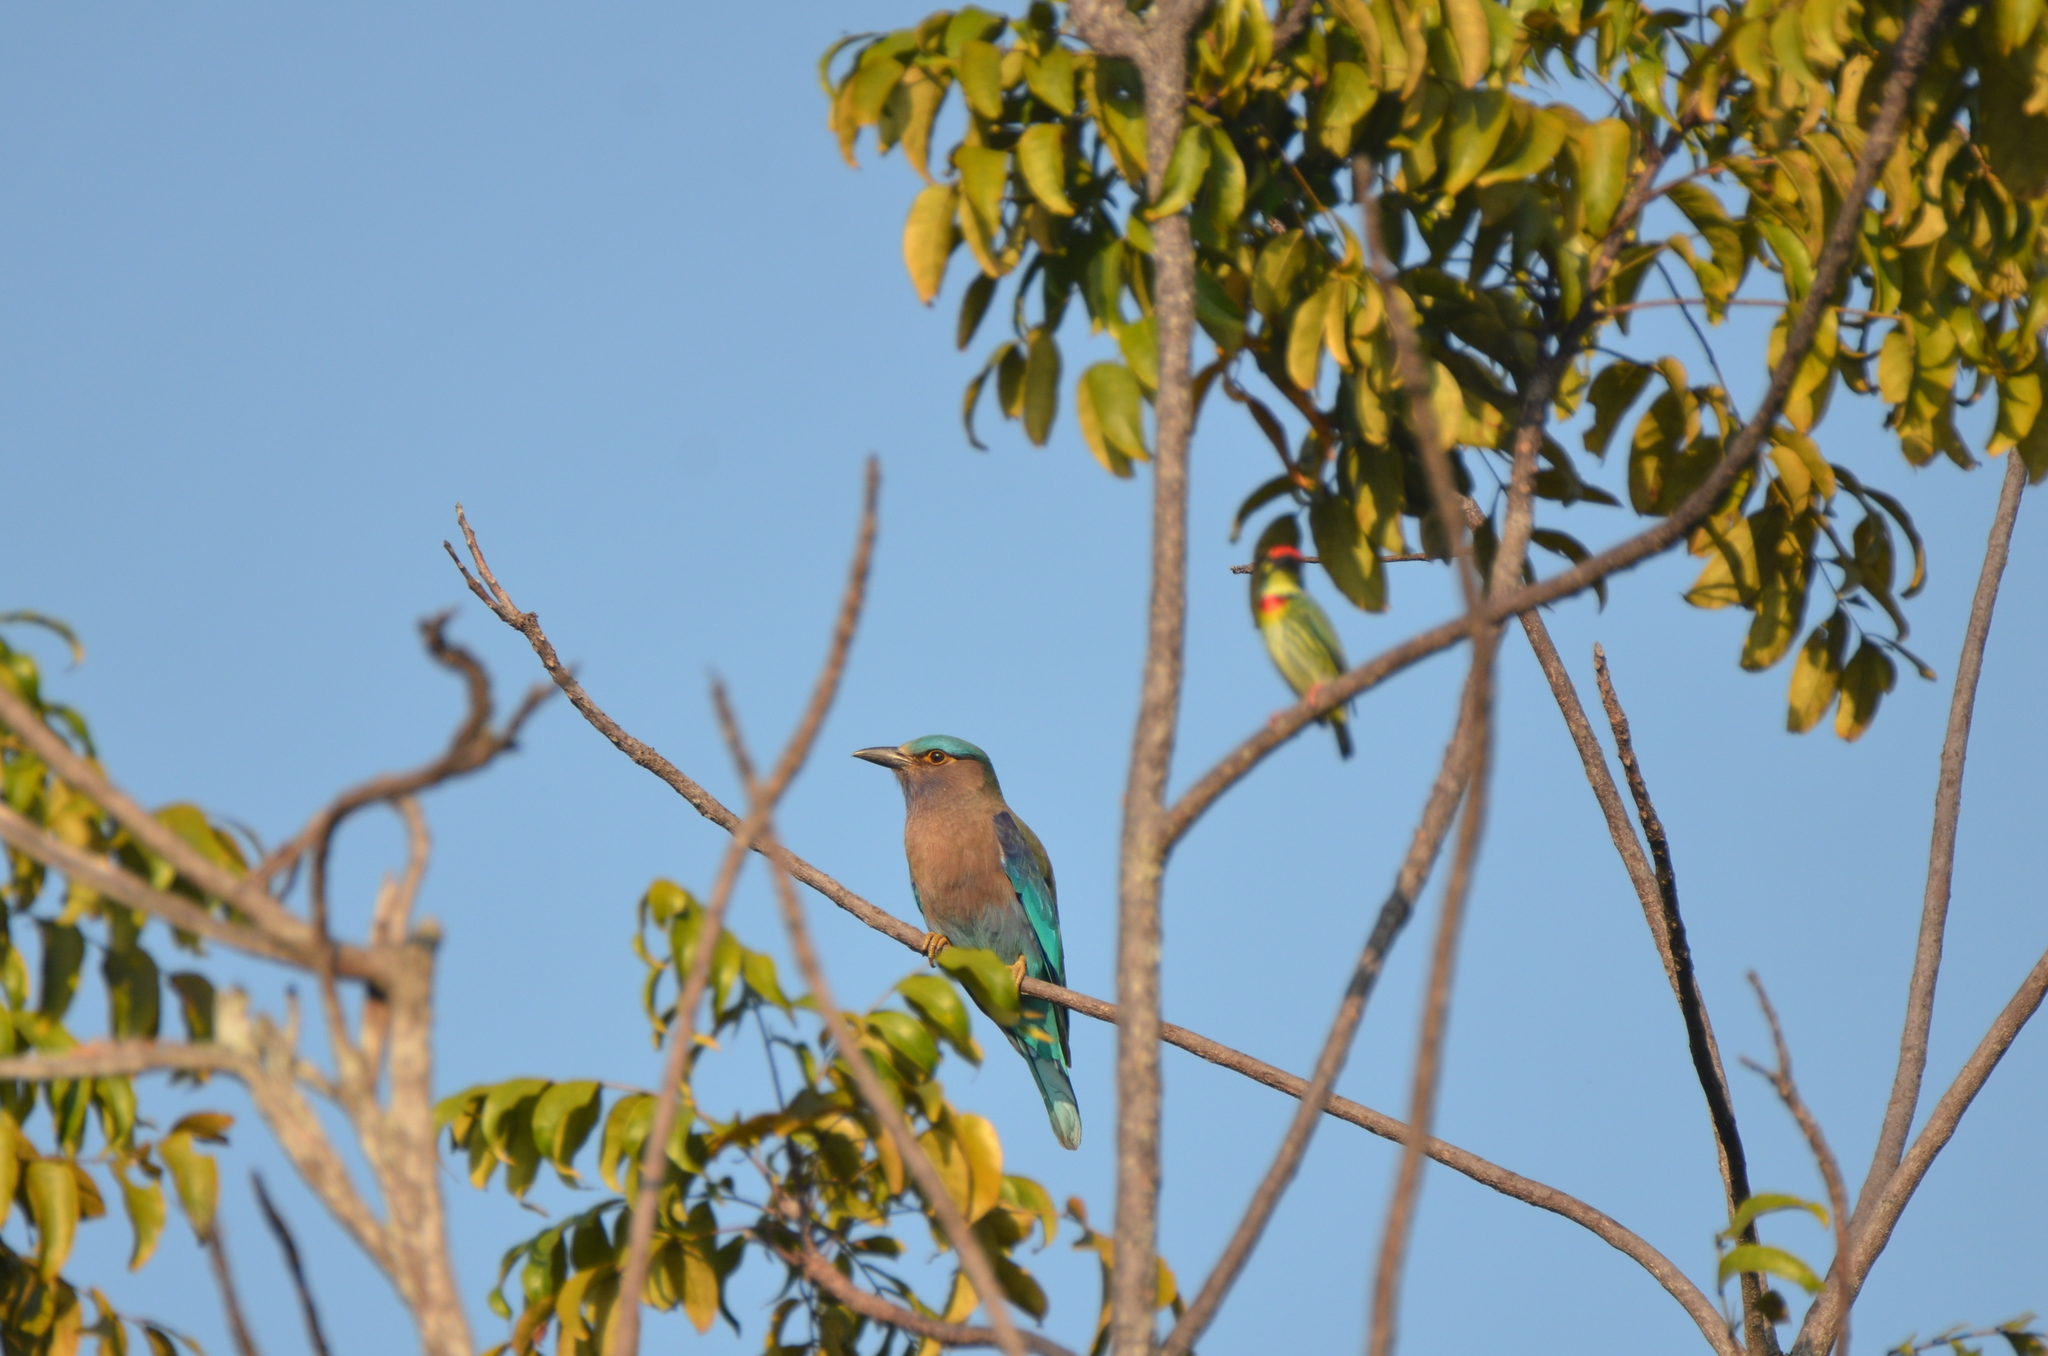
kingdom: Animalia
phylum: Chordata
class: Aves
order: Coraciiformes
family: Coraciidae
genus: Coracias
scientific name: Coracias affinis
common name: Indochinese roller
